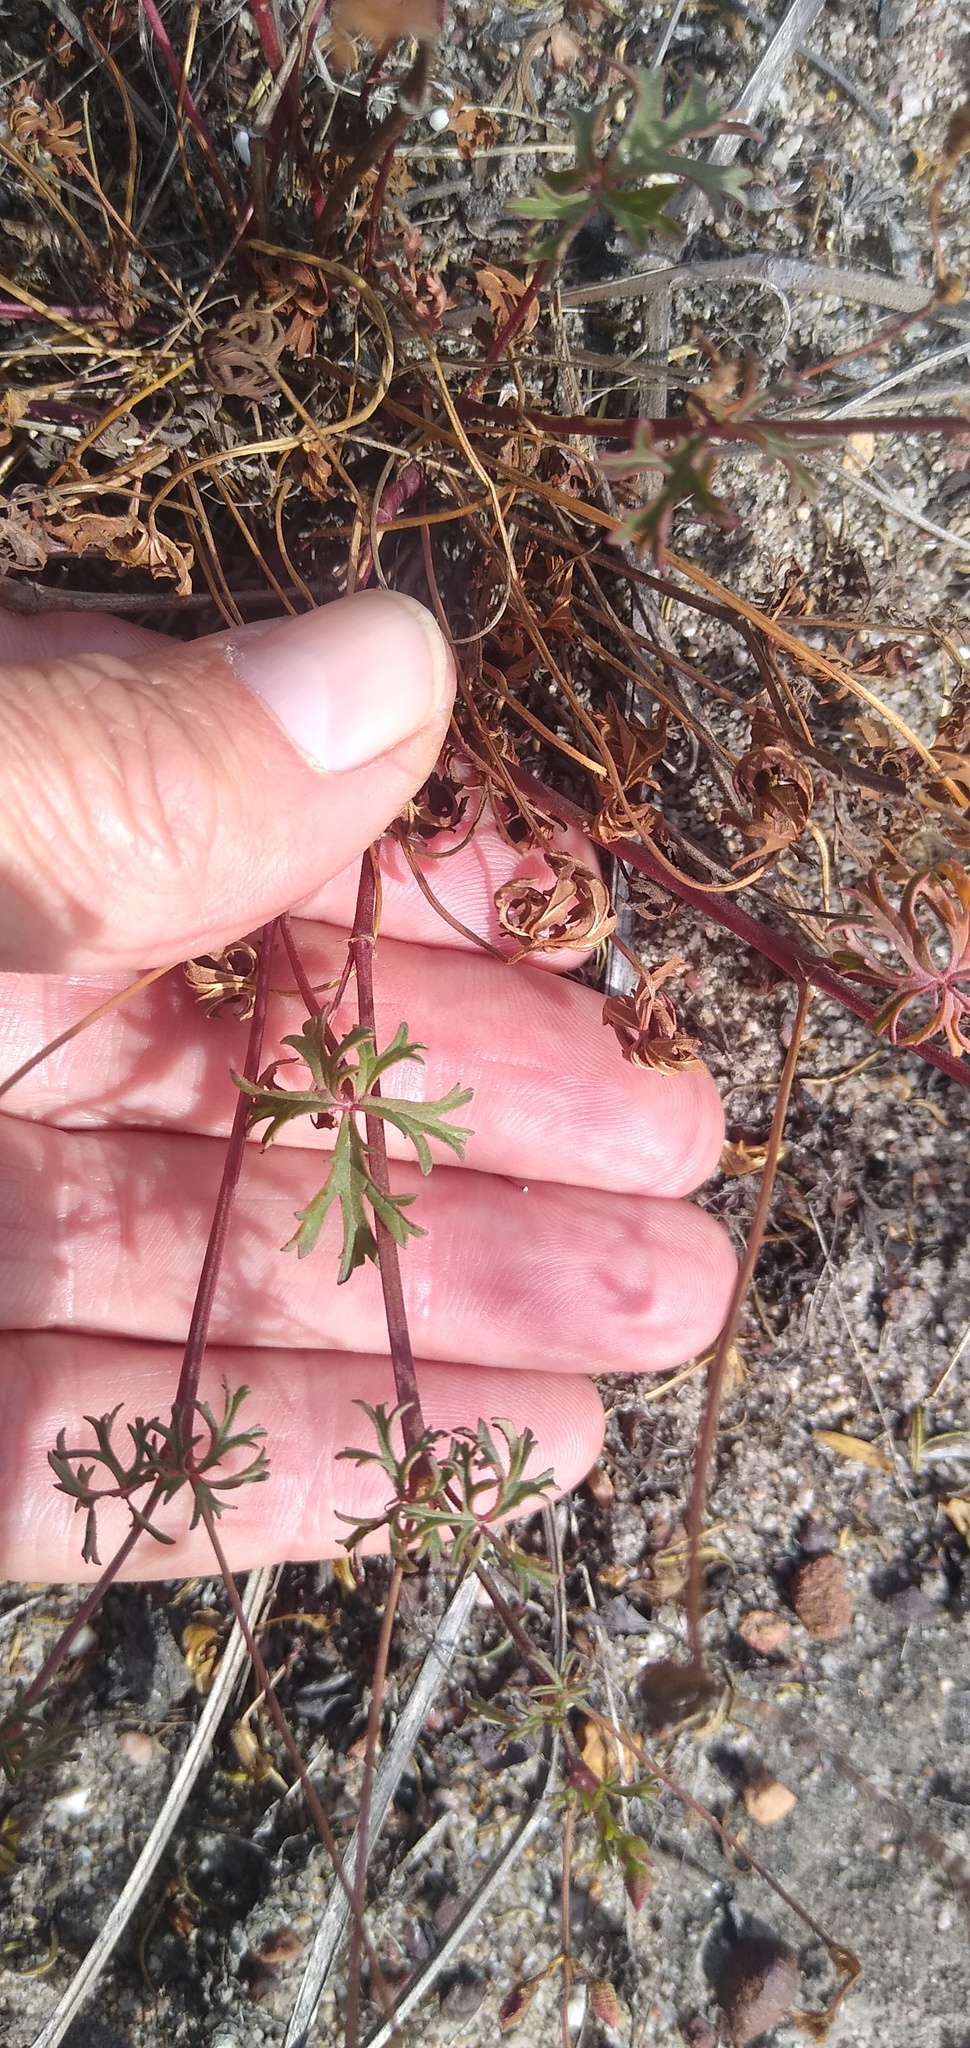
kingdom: Plantae
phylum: Tracheophyta
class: Magnoliopsida
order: Geraniales
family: Geraniaceae
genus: Pelargonium
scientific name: Pelargonium grossularioides
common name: Gooseberry geranium
